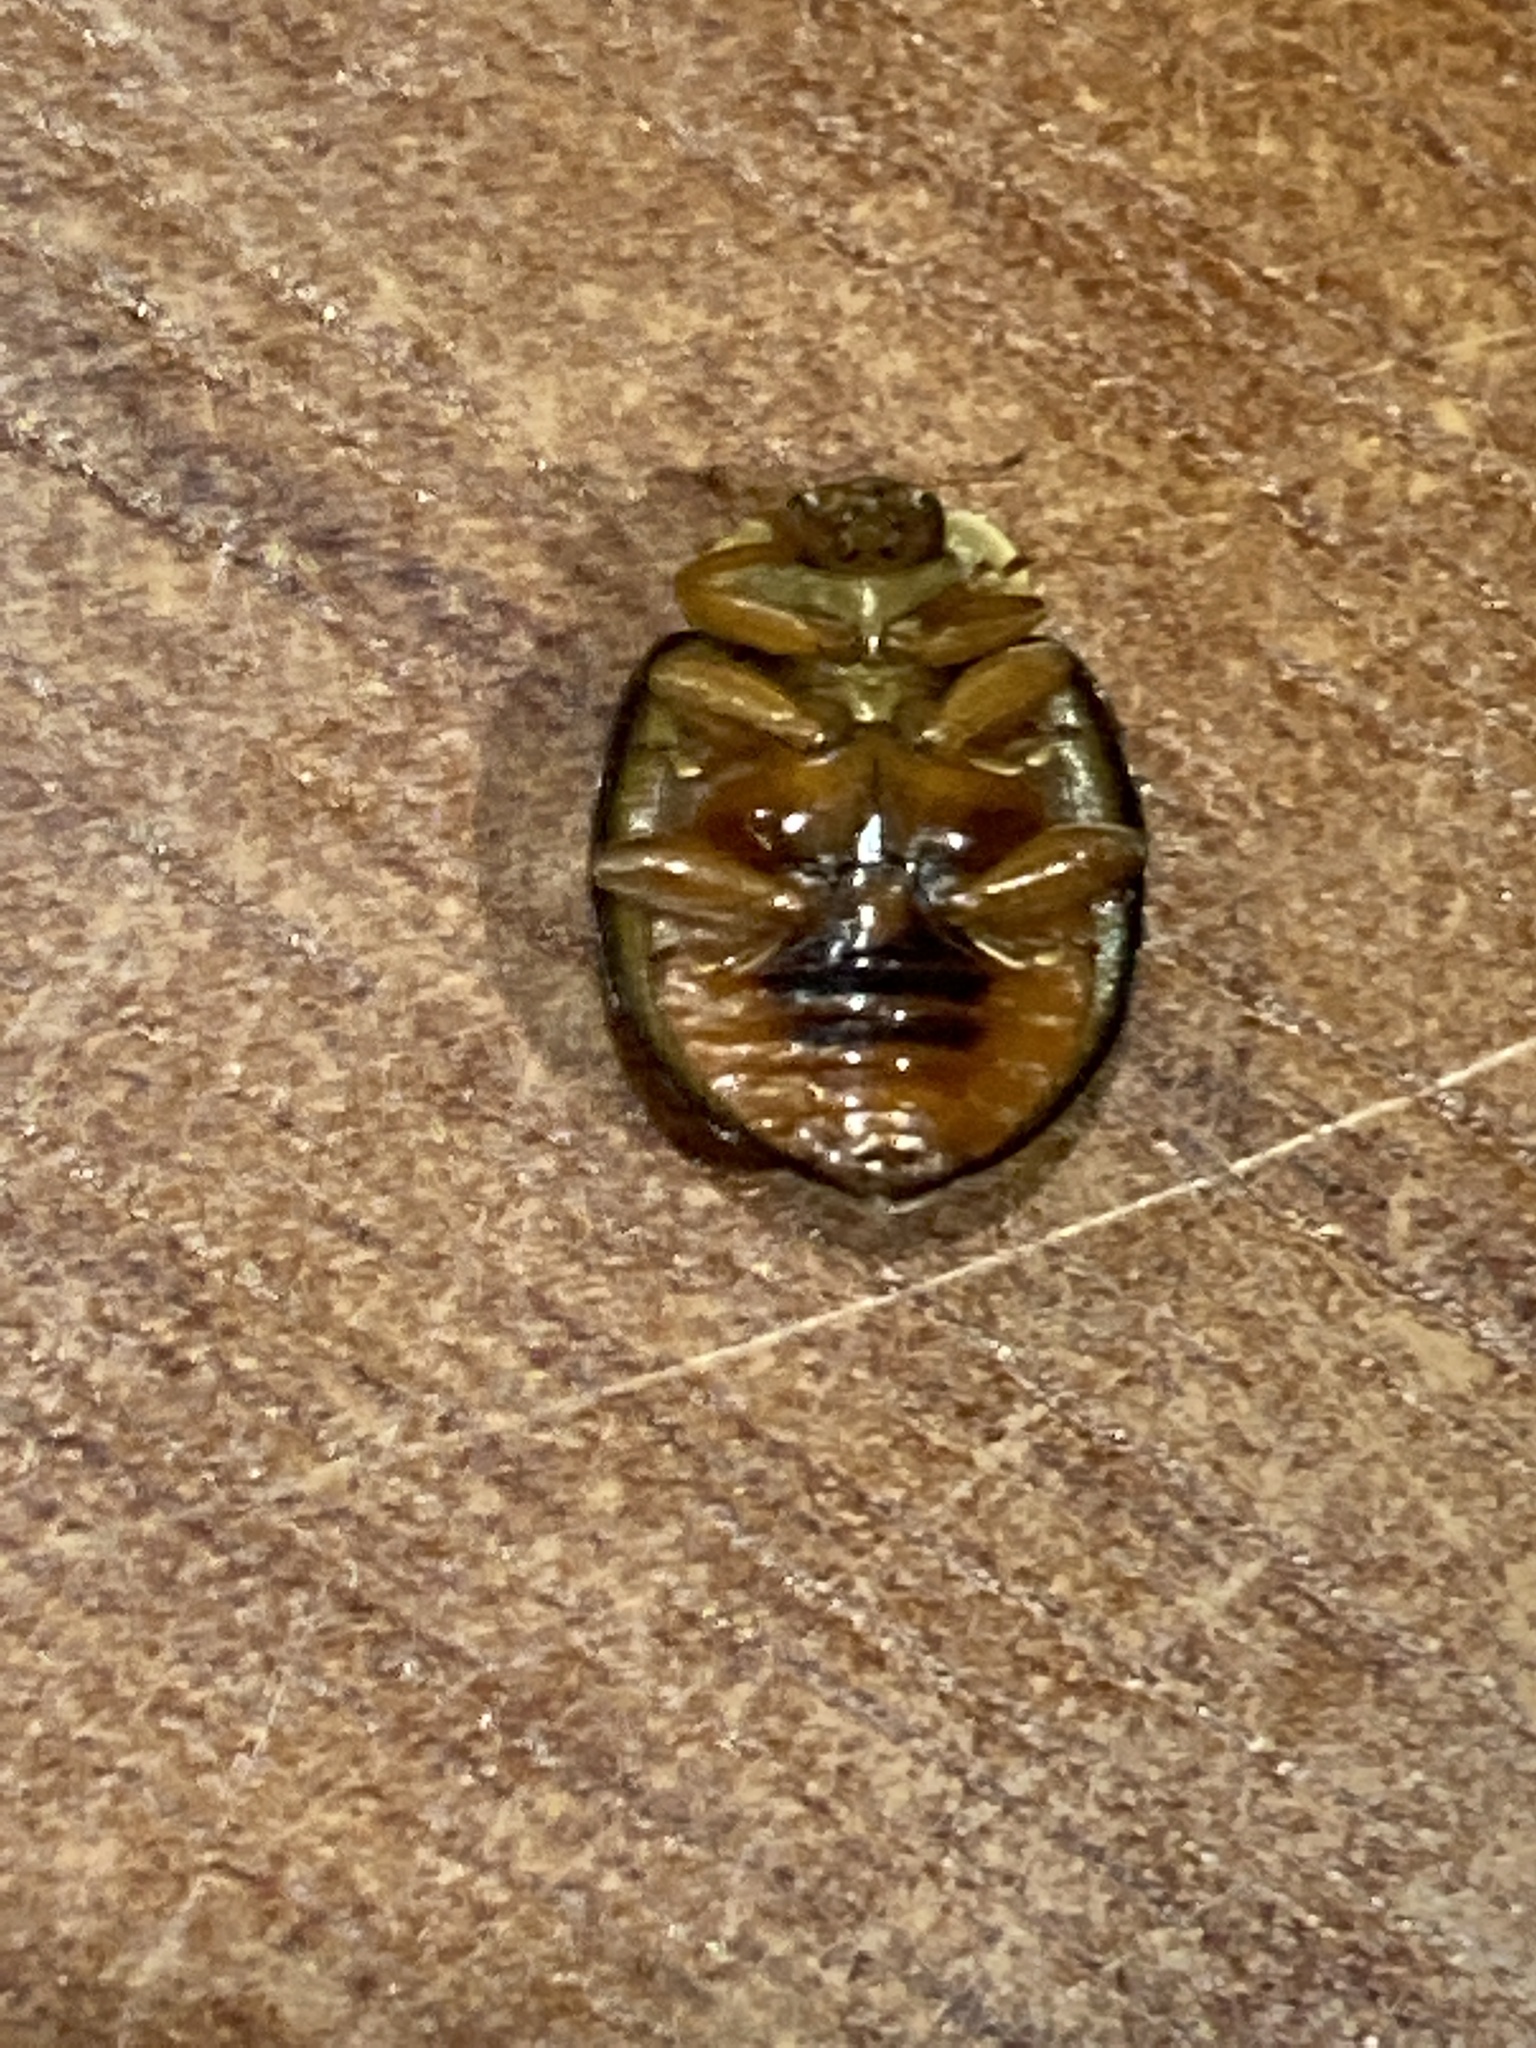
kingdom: Animalia
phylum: Arthropoda
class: Insecta
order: Coleoptera
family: Coccinellidae
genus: Harmonia
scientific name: Harmonia axyridis
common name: Harlequin ladybird
